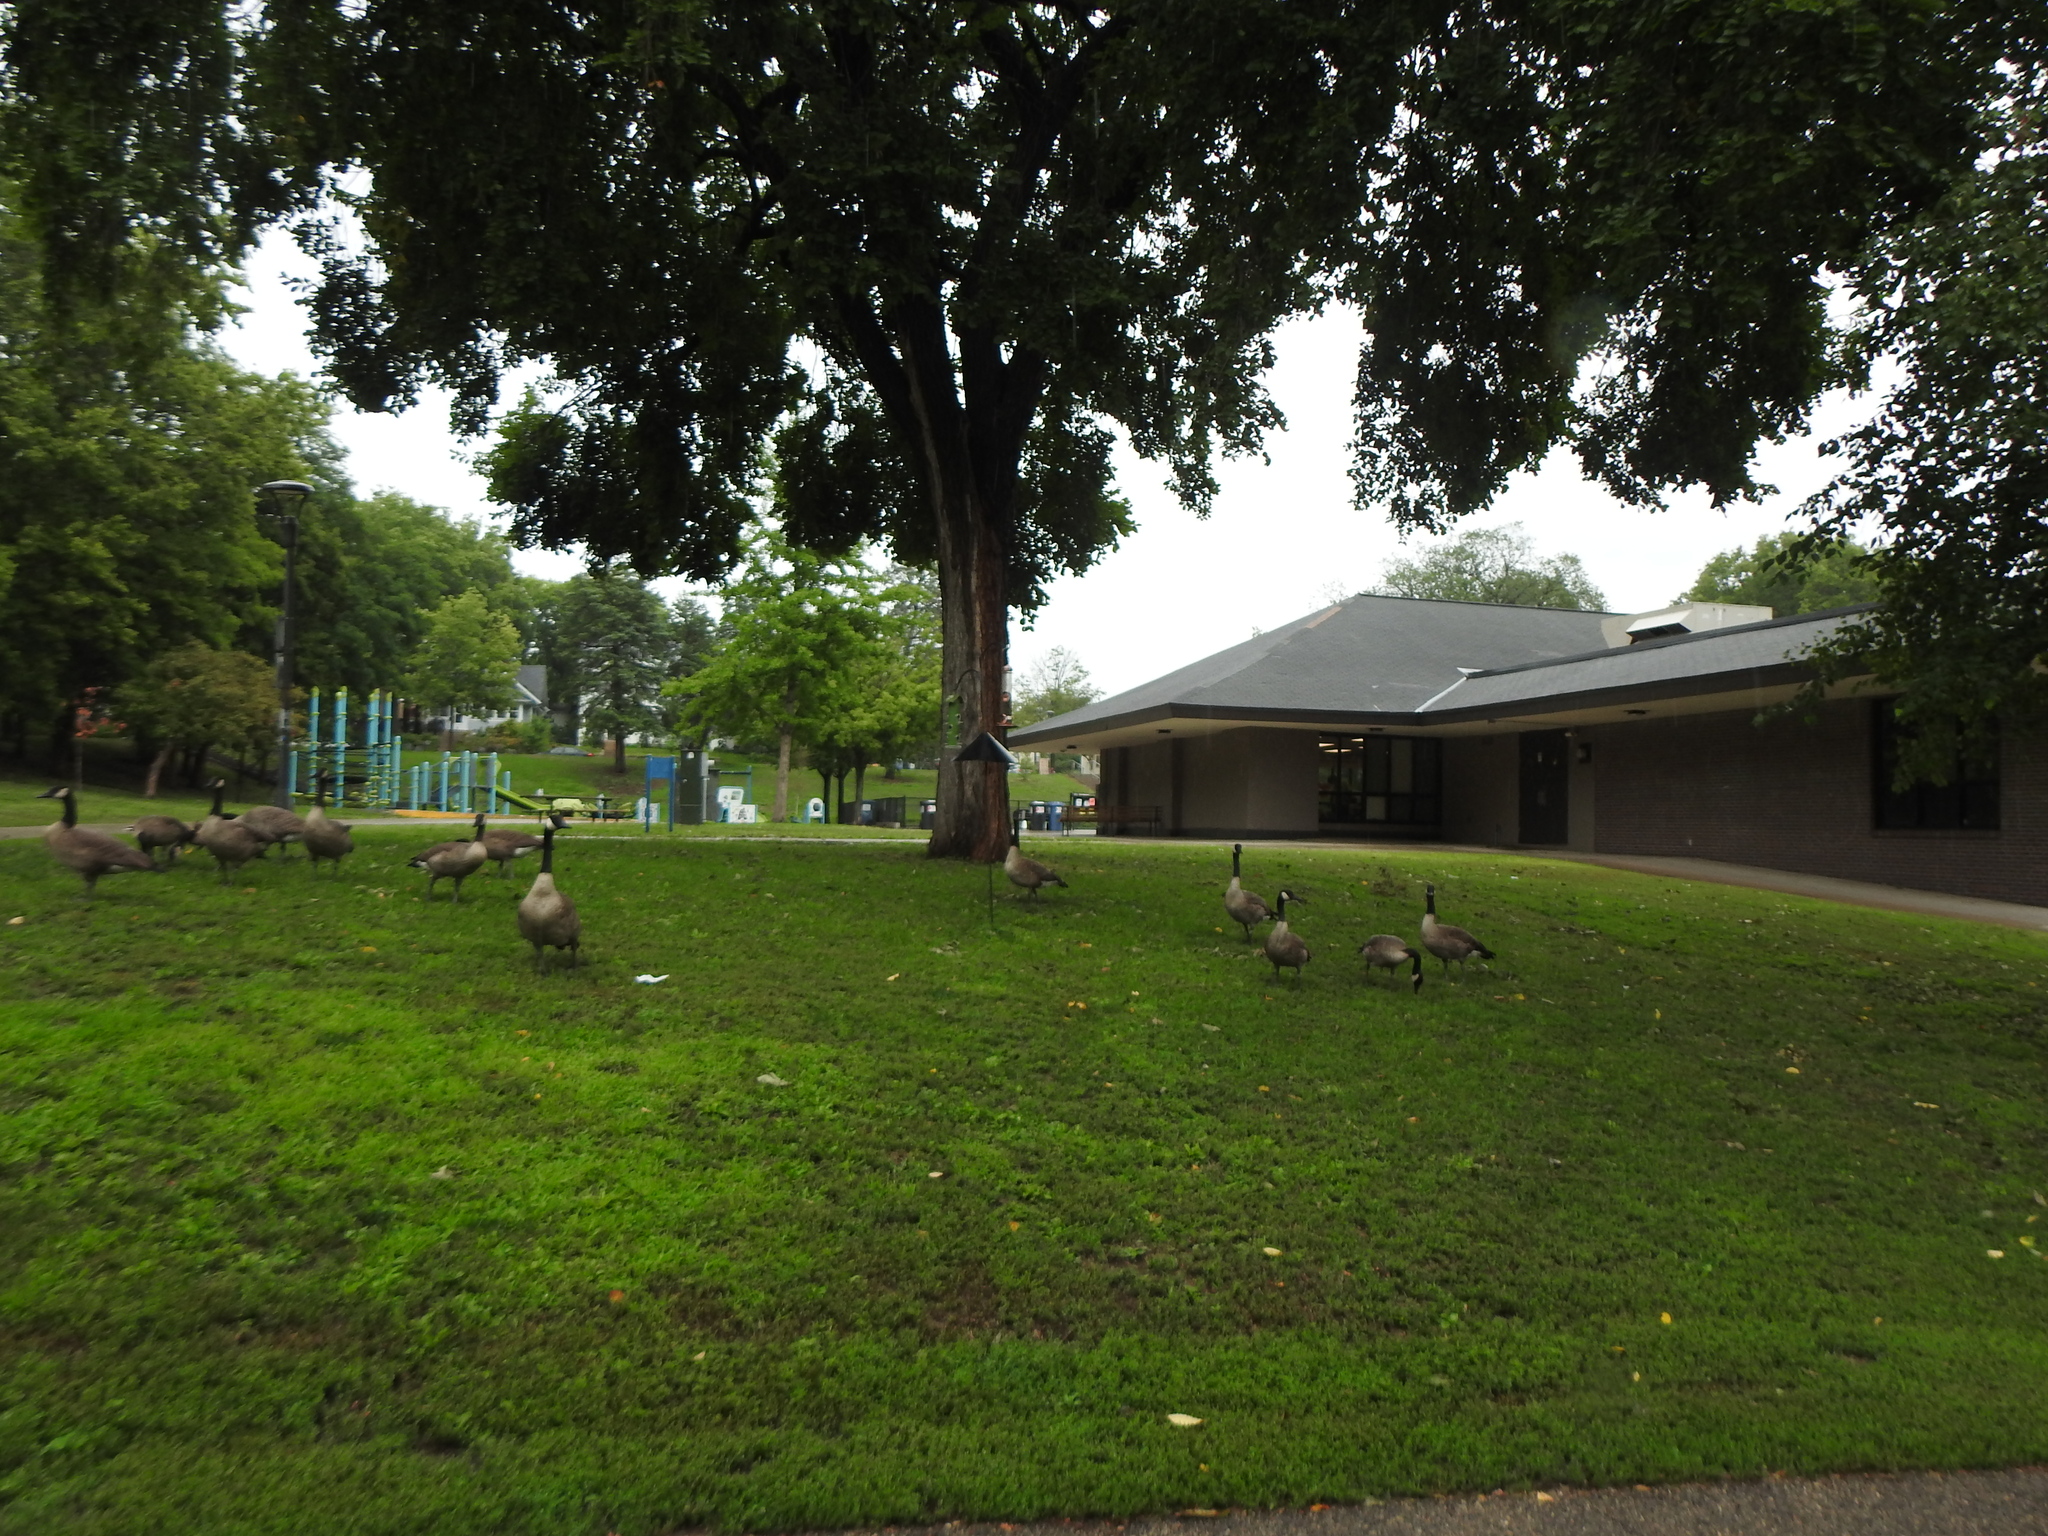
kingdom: Animalia
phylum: Chordata
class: Aves
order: Anseriformes
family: Anatidae
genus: Branta
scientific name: Branta canadensis
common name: Canada goose
